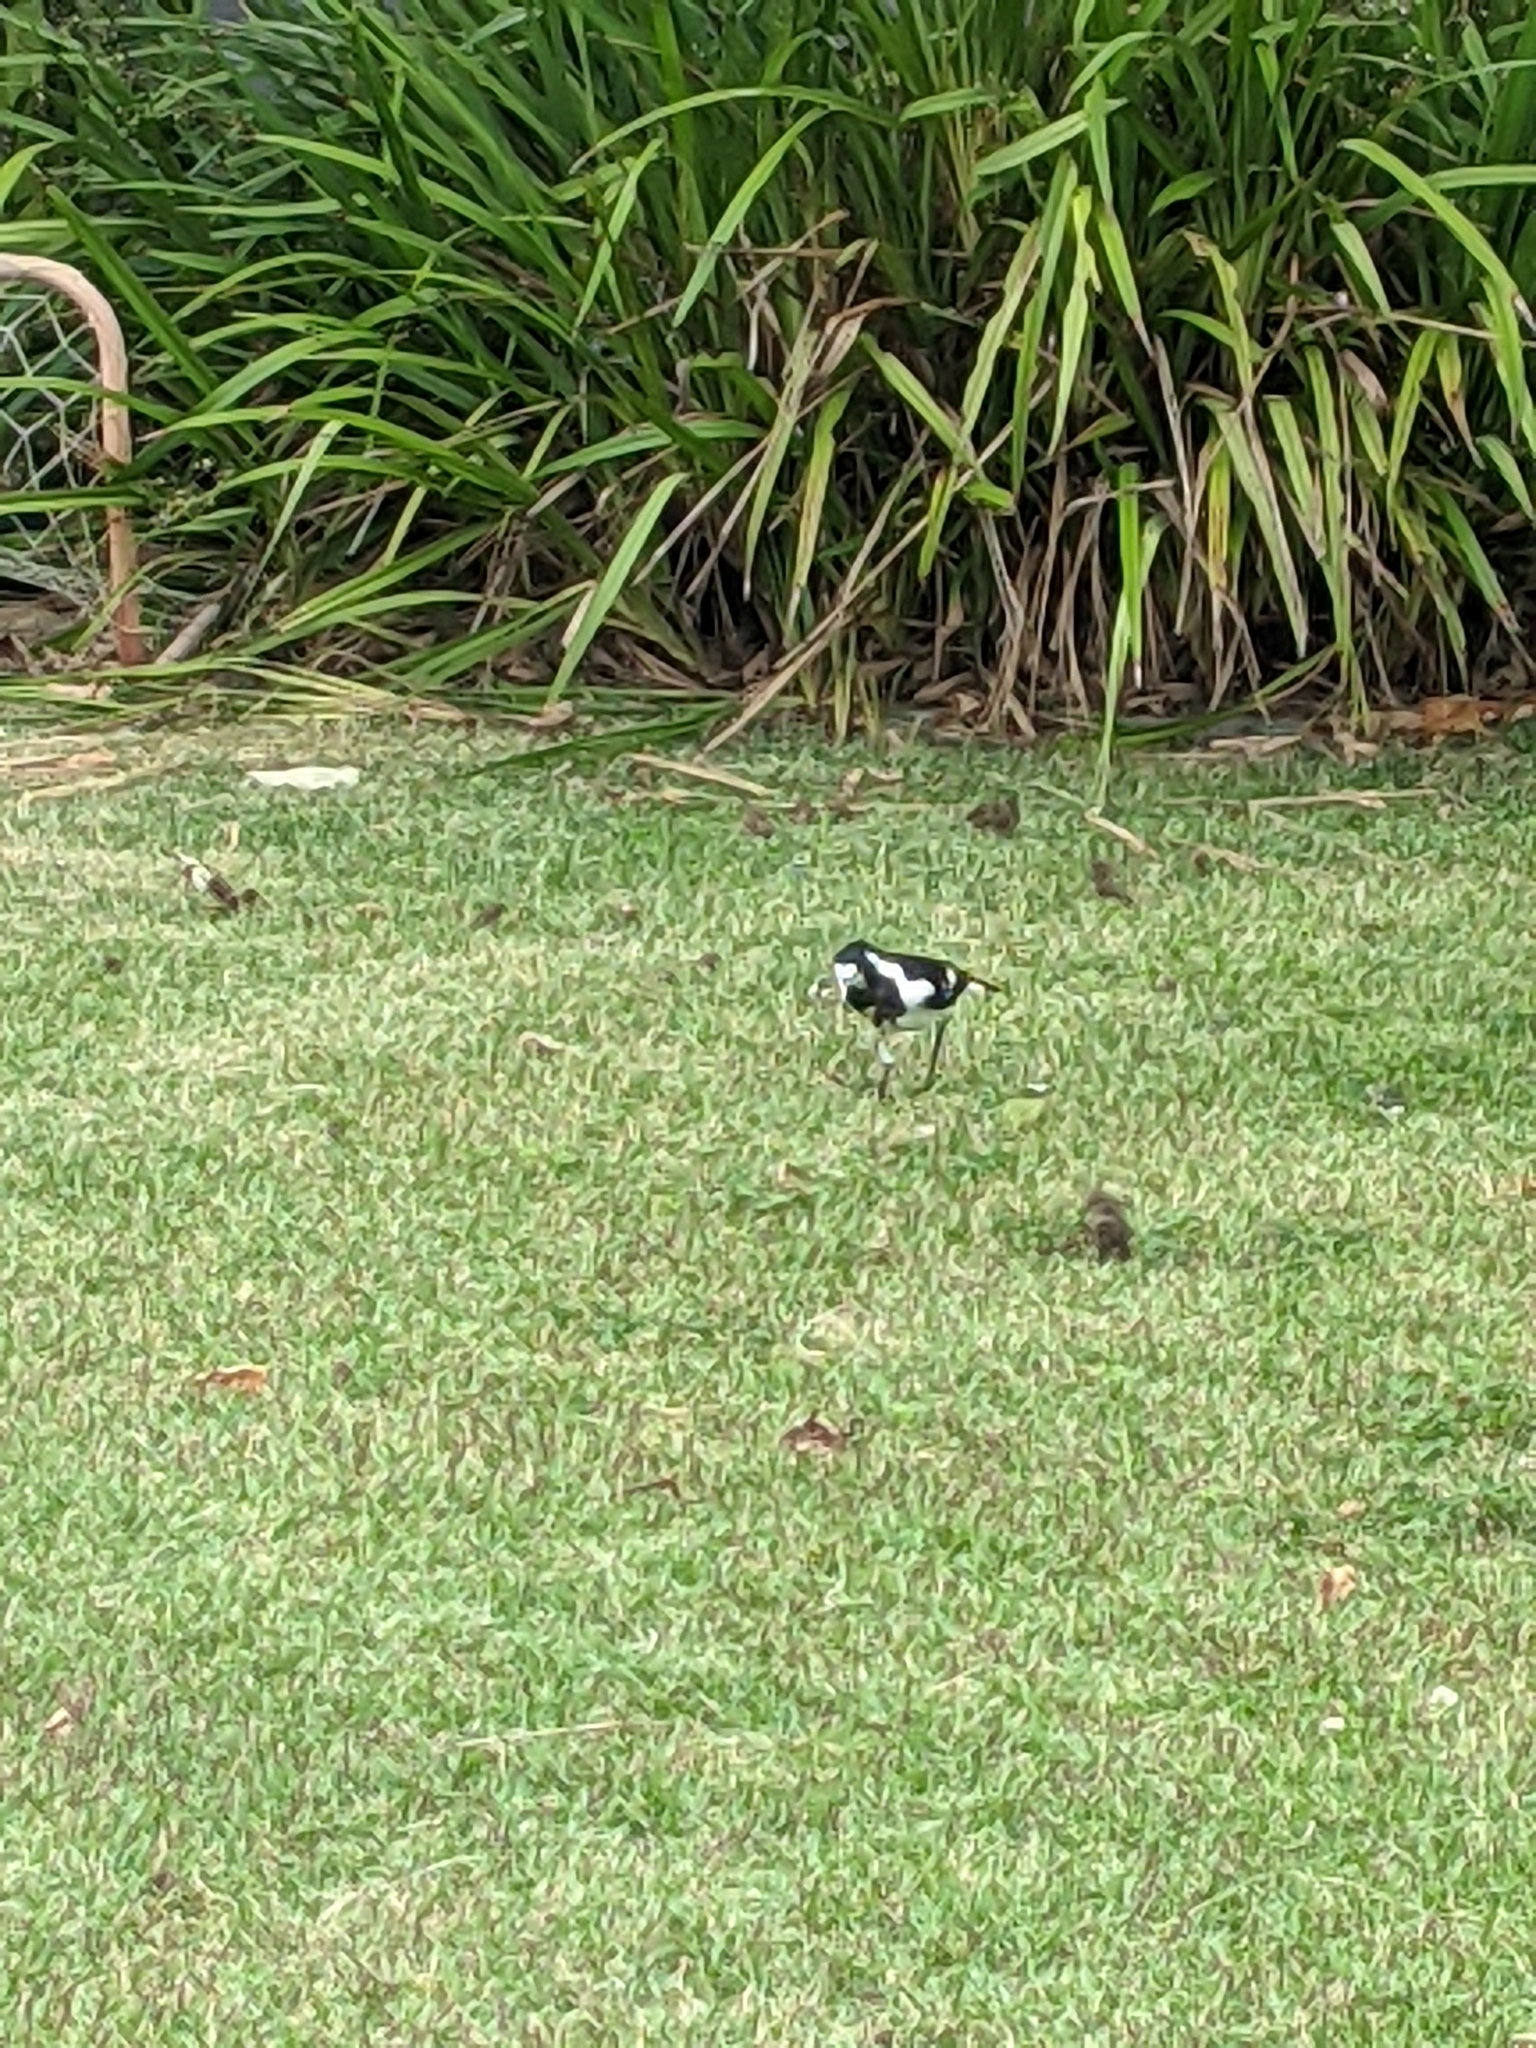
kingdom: Animalia
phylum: Chordata
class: Aves
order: Passeriformes
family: Monarchidae
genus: Grallina
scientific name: Grallina cyanoleuca
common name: Magpie-lark
